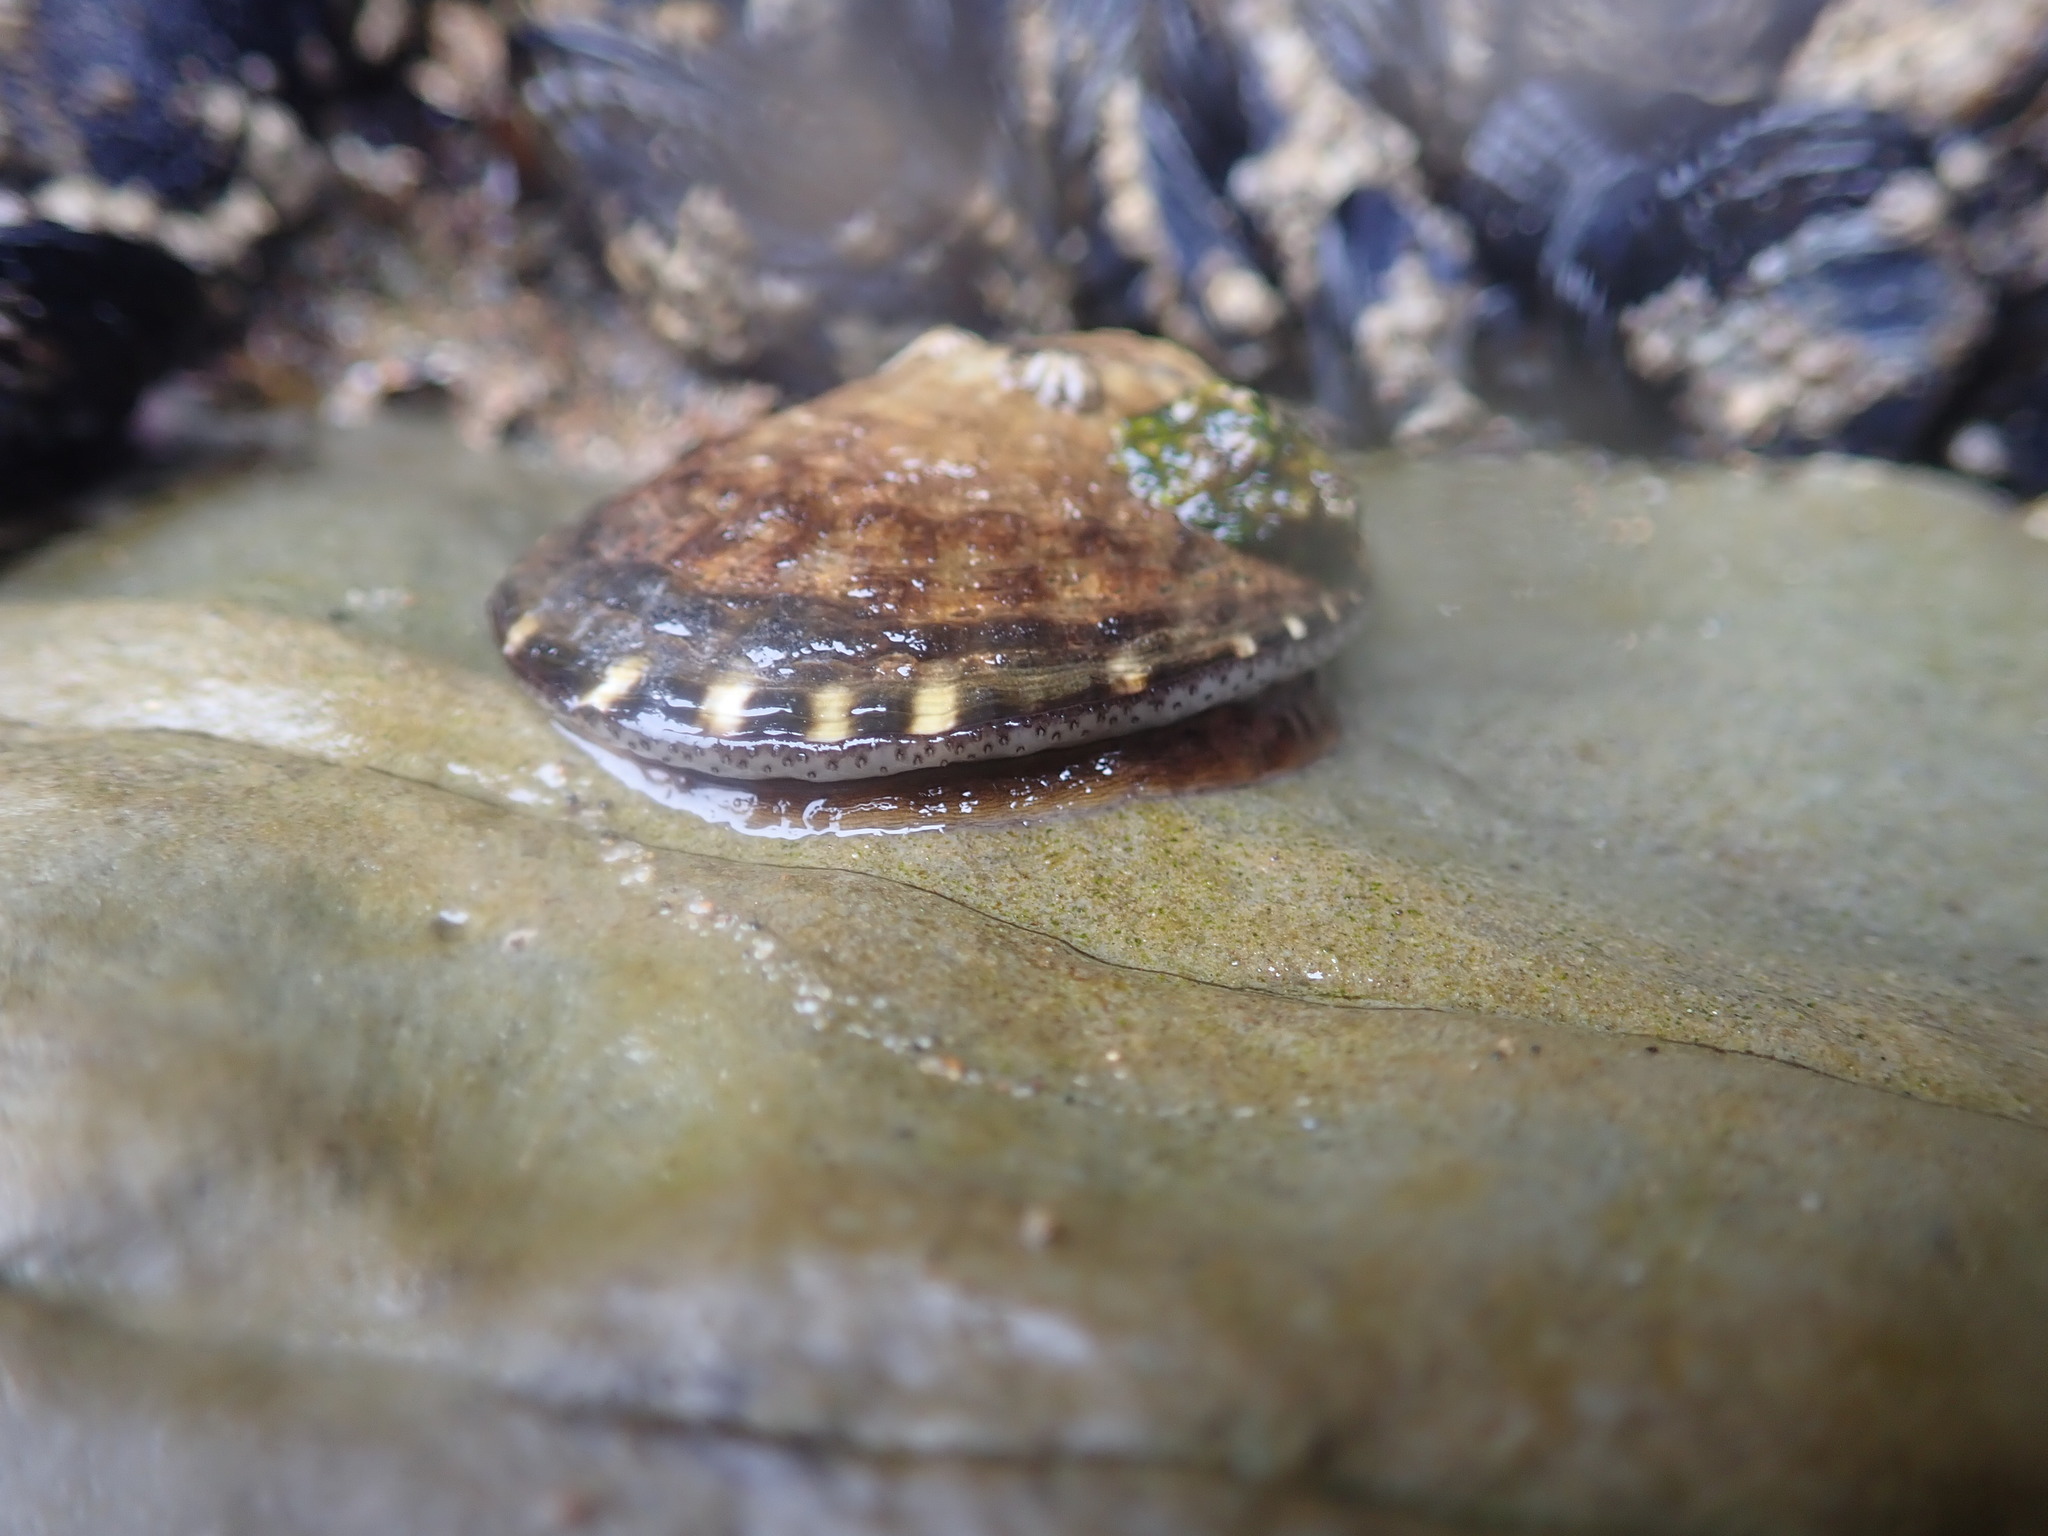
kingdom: Animalia
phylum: Mollusca
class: Gastropoda
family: Lottiidae
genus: Lottia
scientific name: Lottia gigantea
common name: Owl limpet
